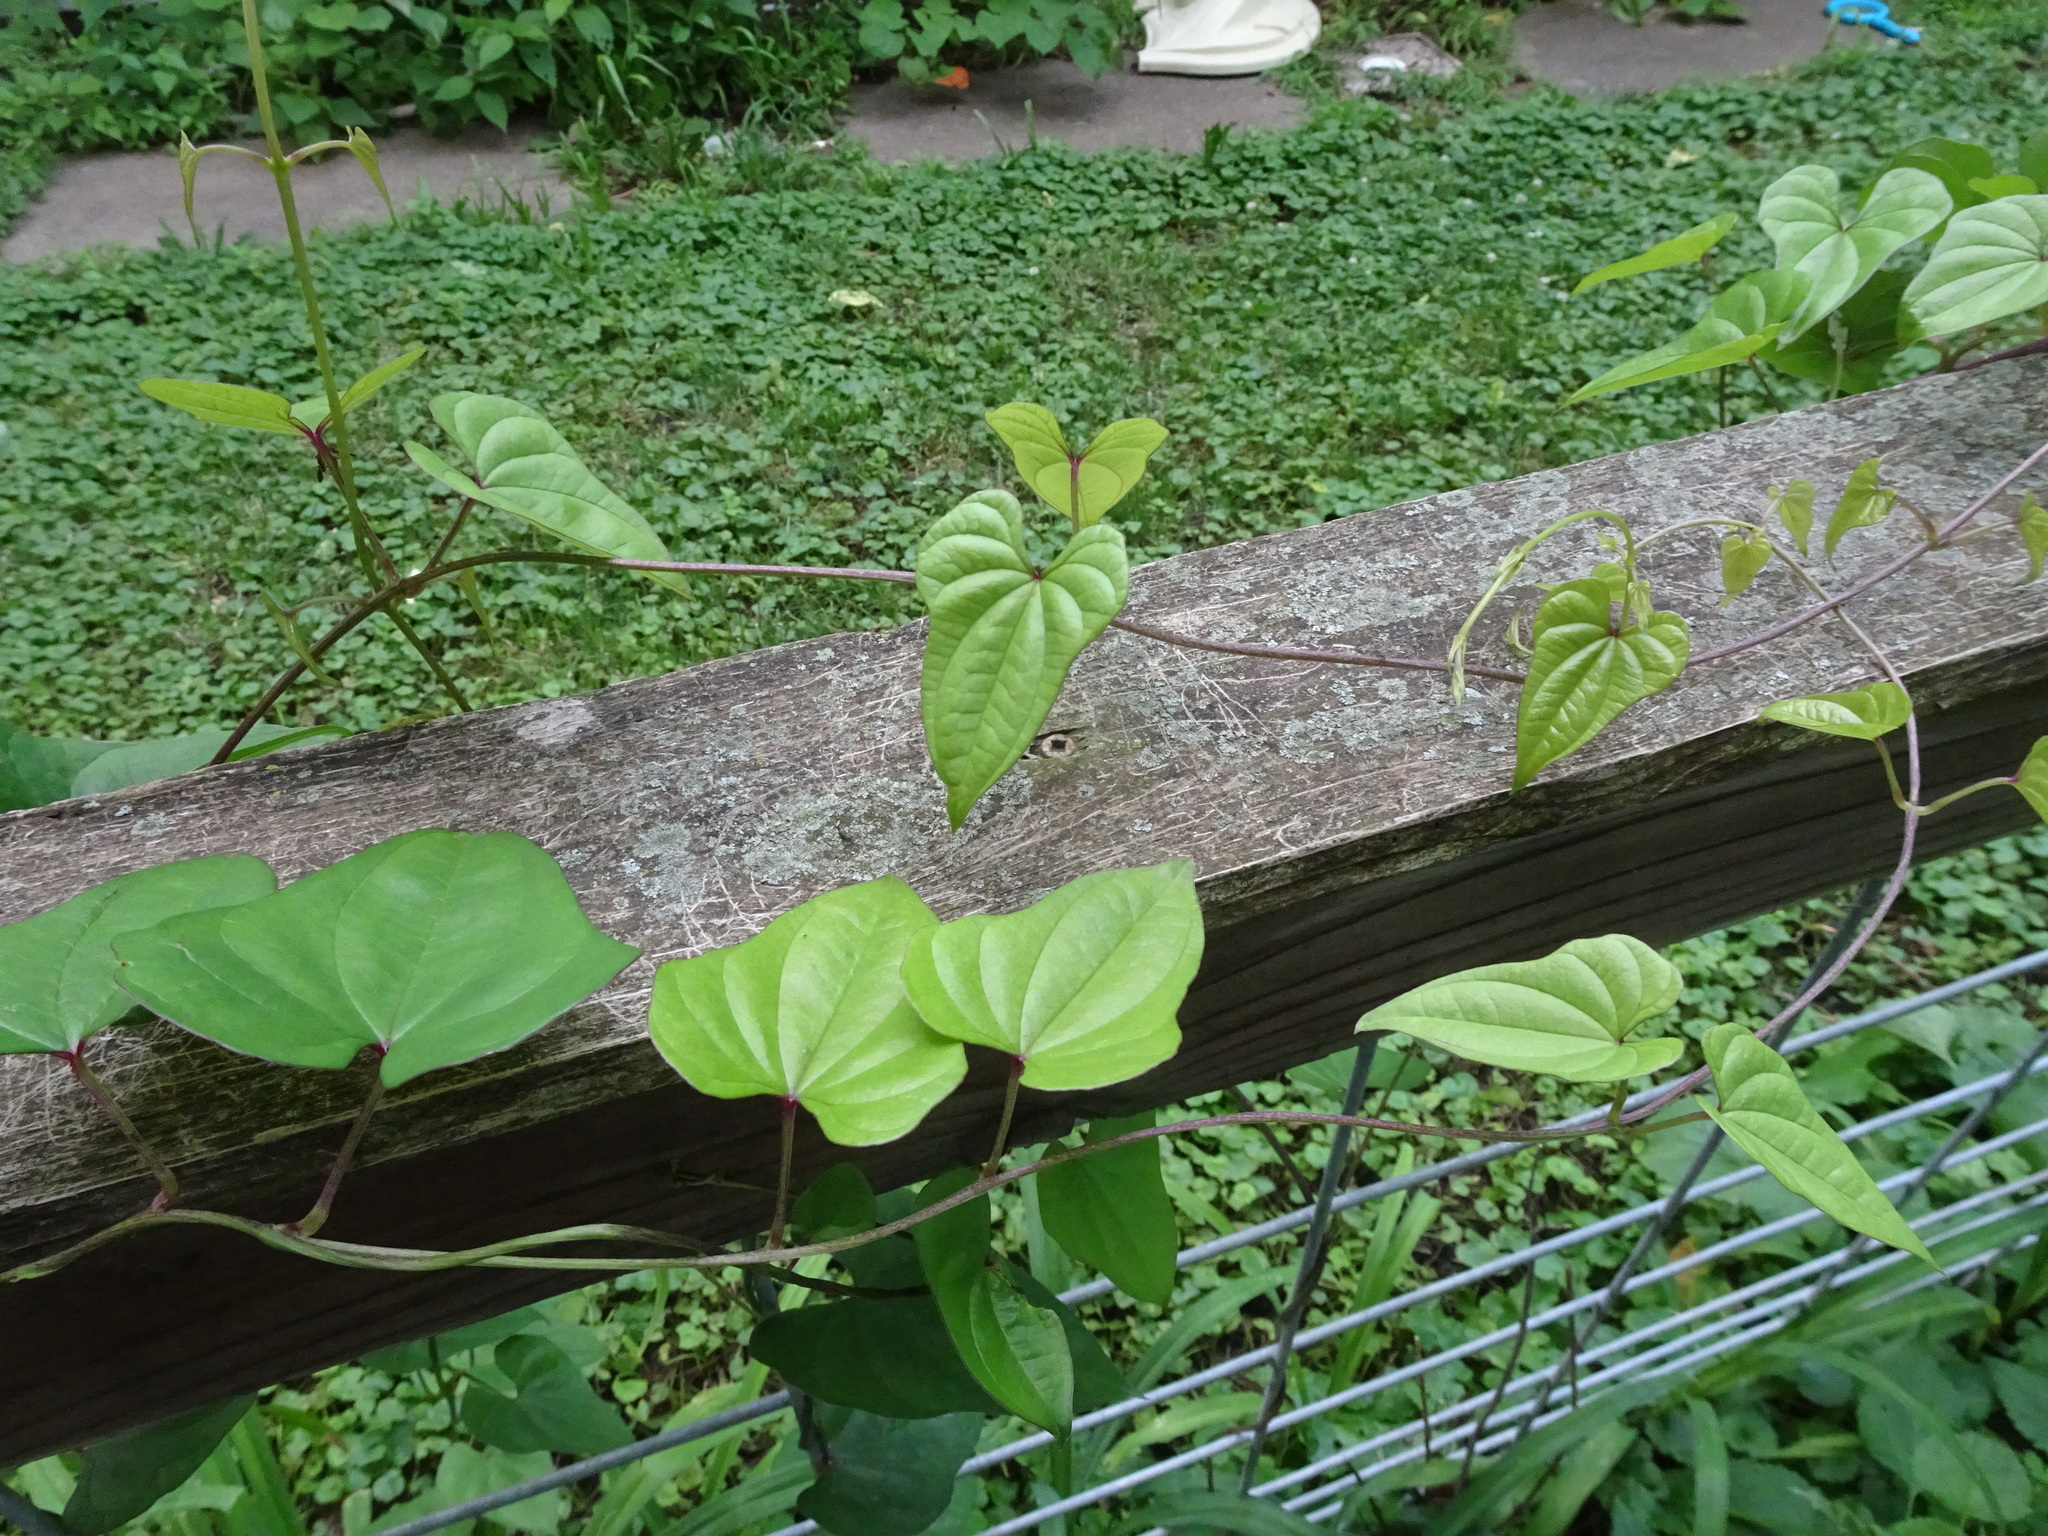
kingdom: Plantae
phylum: Tracheophyta
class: Liliopsida
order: Dioscoreales
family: Dioscoreaceae
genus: Dioscorea
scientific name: Dioscorea polystachya
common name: Chinese yam
